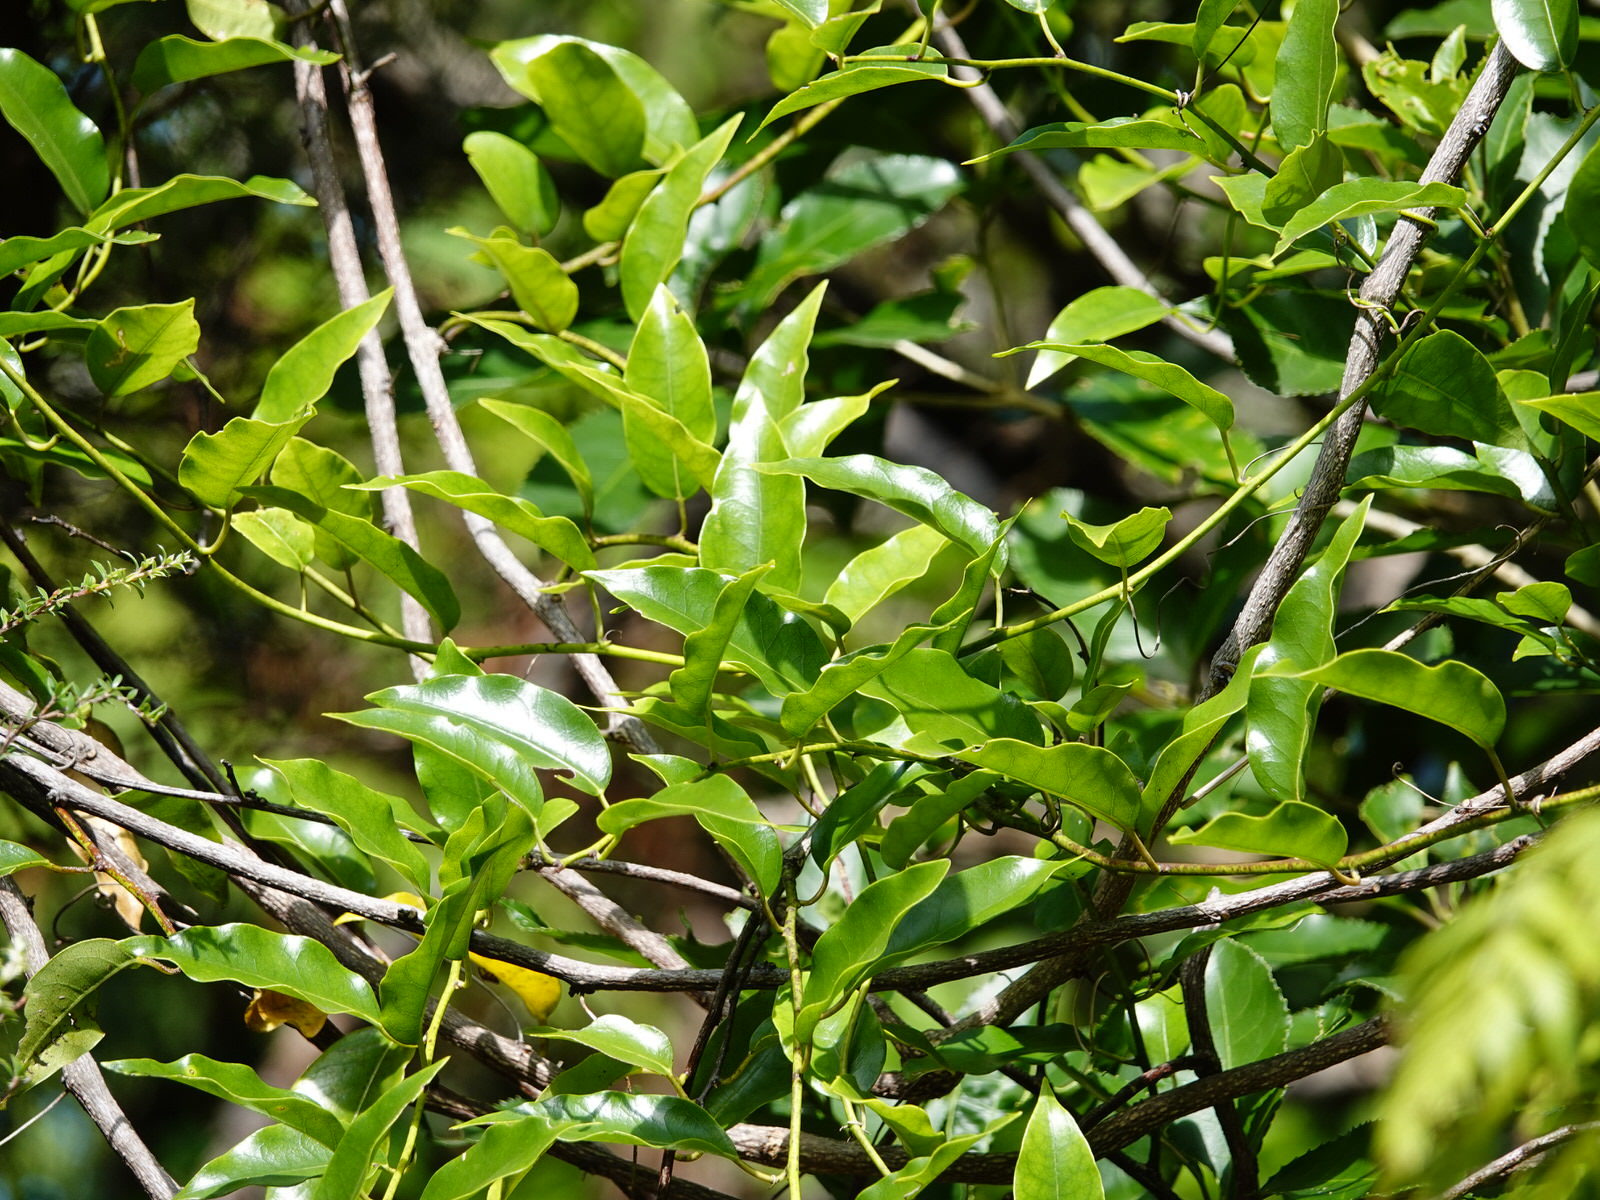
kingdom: Plantae
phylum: Tracheophyta
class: Magnoliopsida
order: Malpighiales
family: Passifloraceae
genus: Passiflora
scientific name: Passiflora tetrandra
